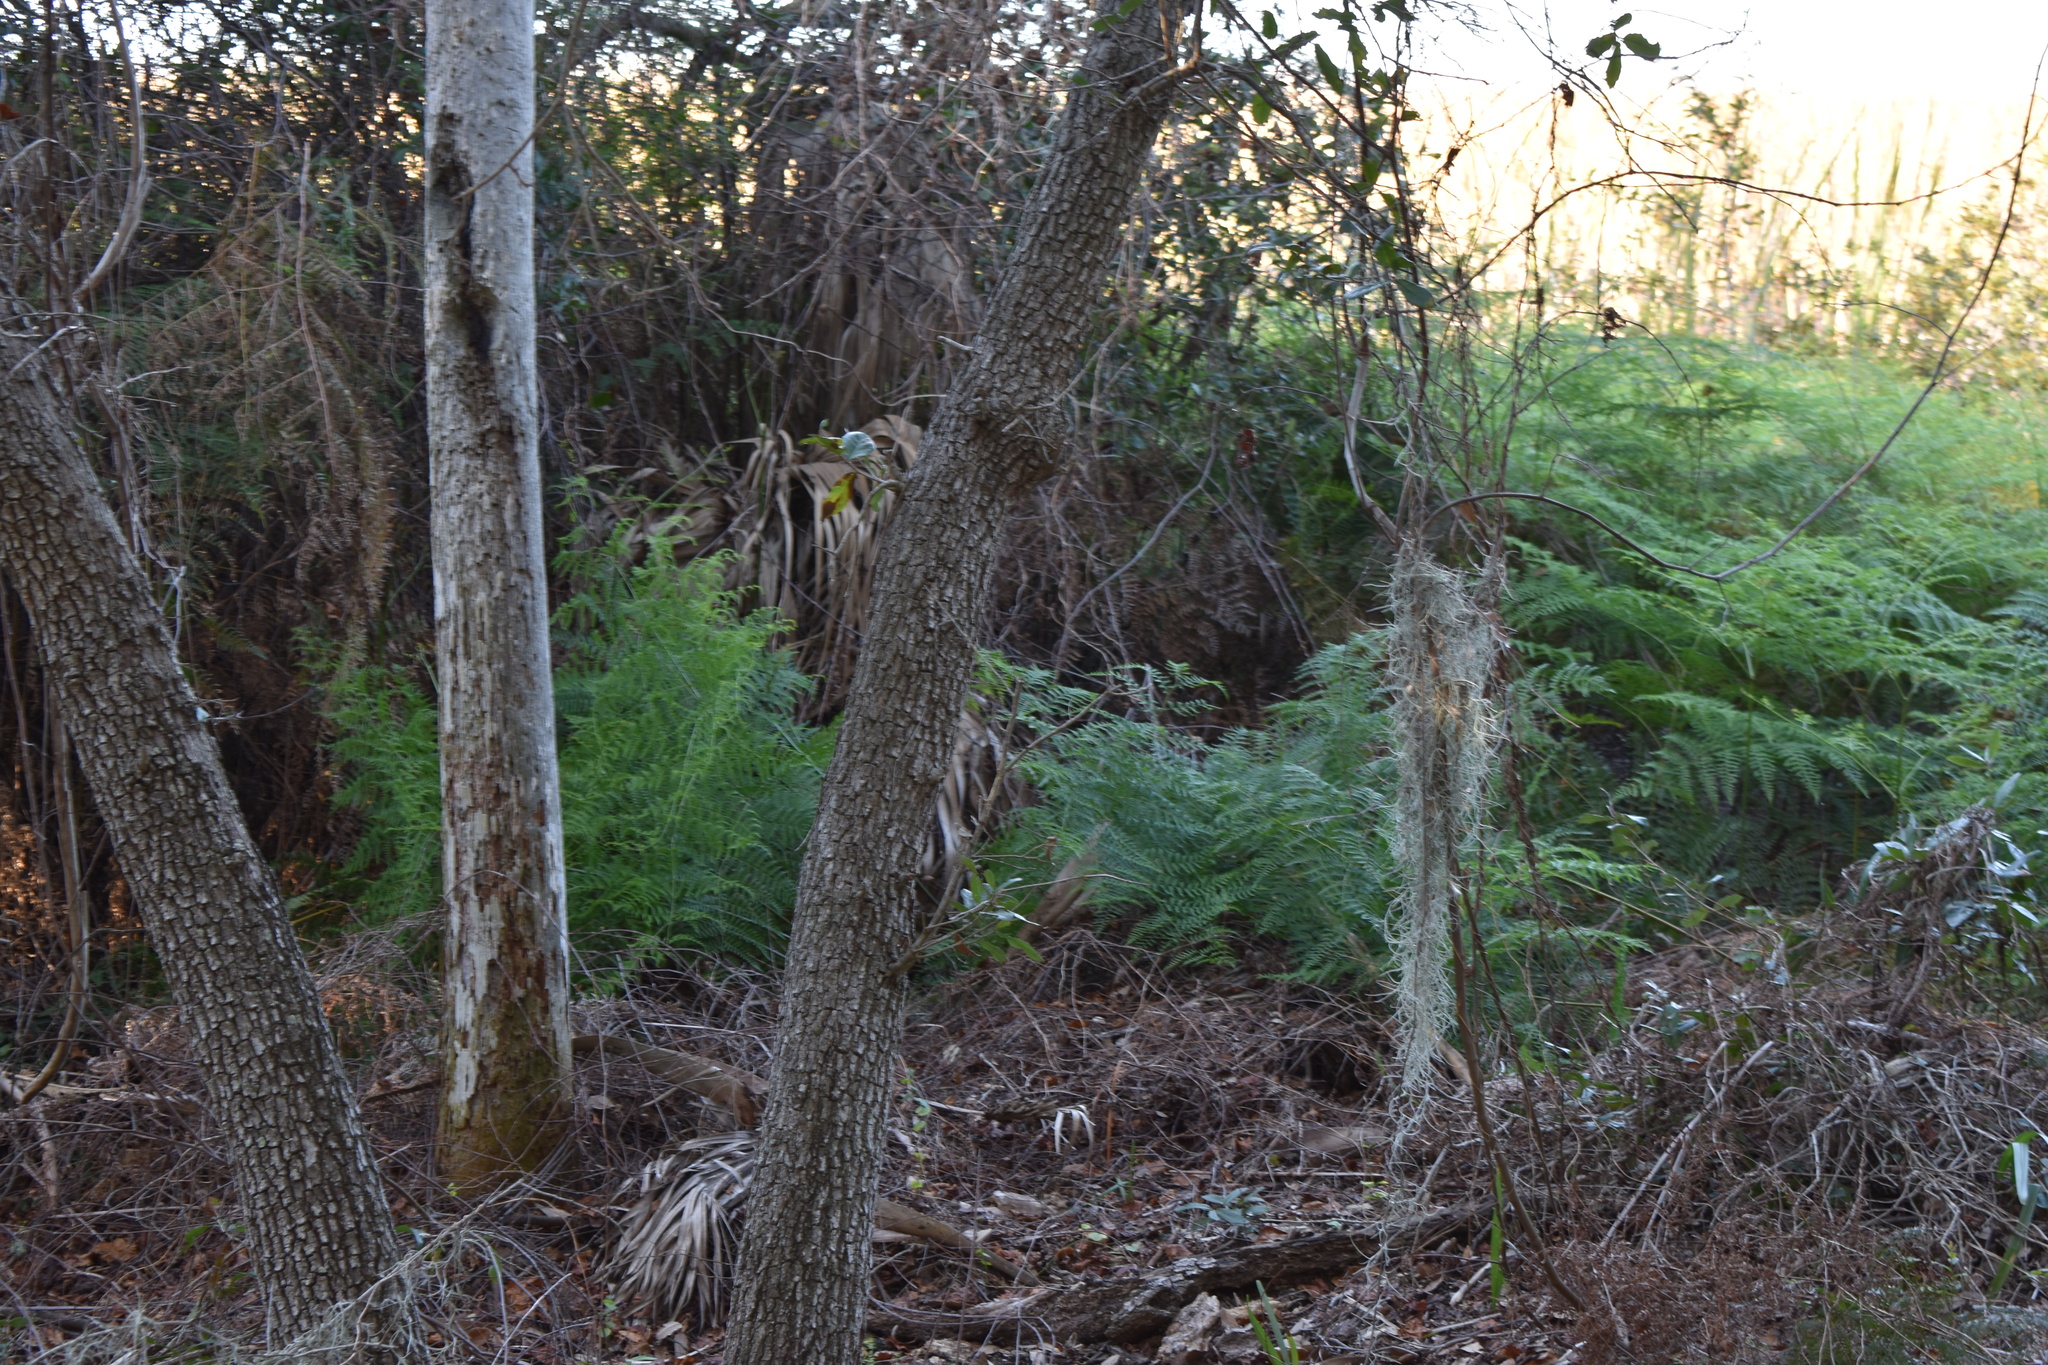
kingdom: Plantae
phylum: Tracheophyta
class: Polypodiopsida
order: Polypodiales
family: Dennstaedtiaceae
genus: Pteridium
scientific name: Pteridium caudatum
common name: Southern bracken fern
